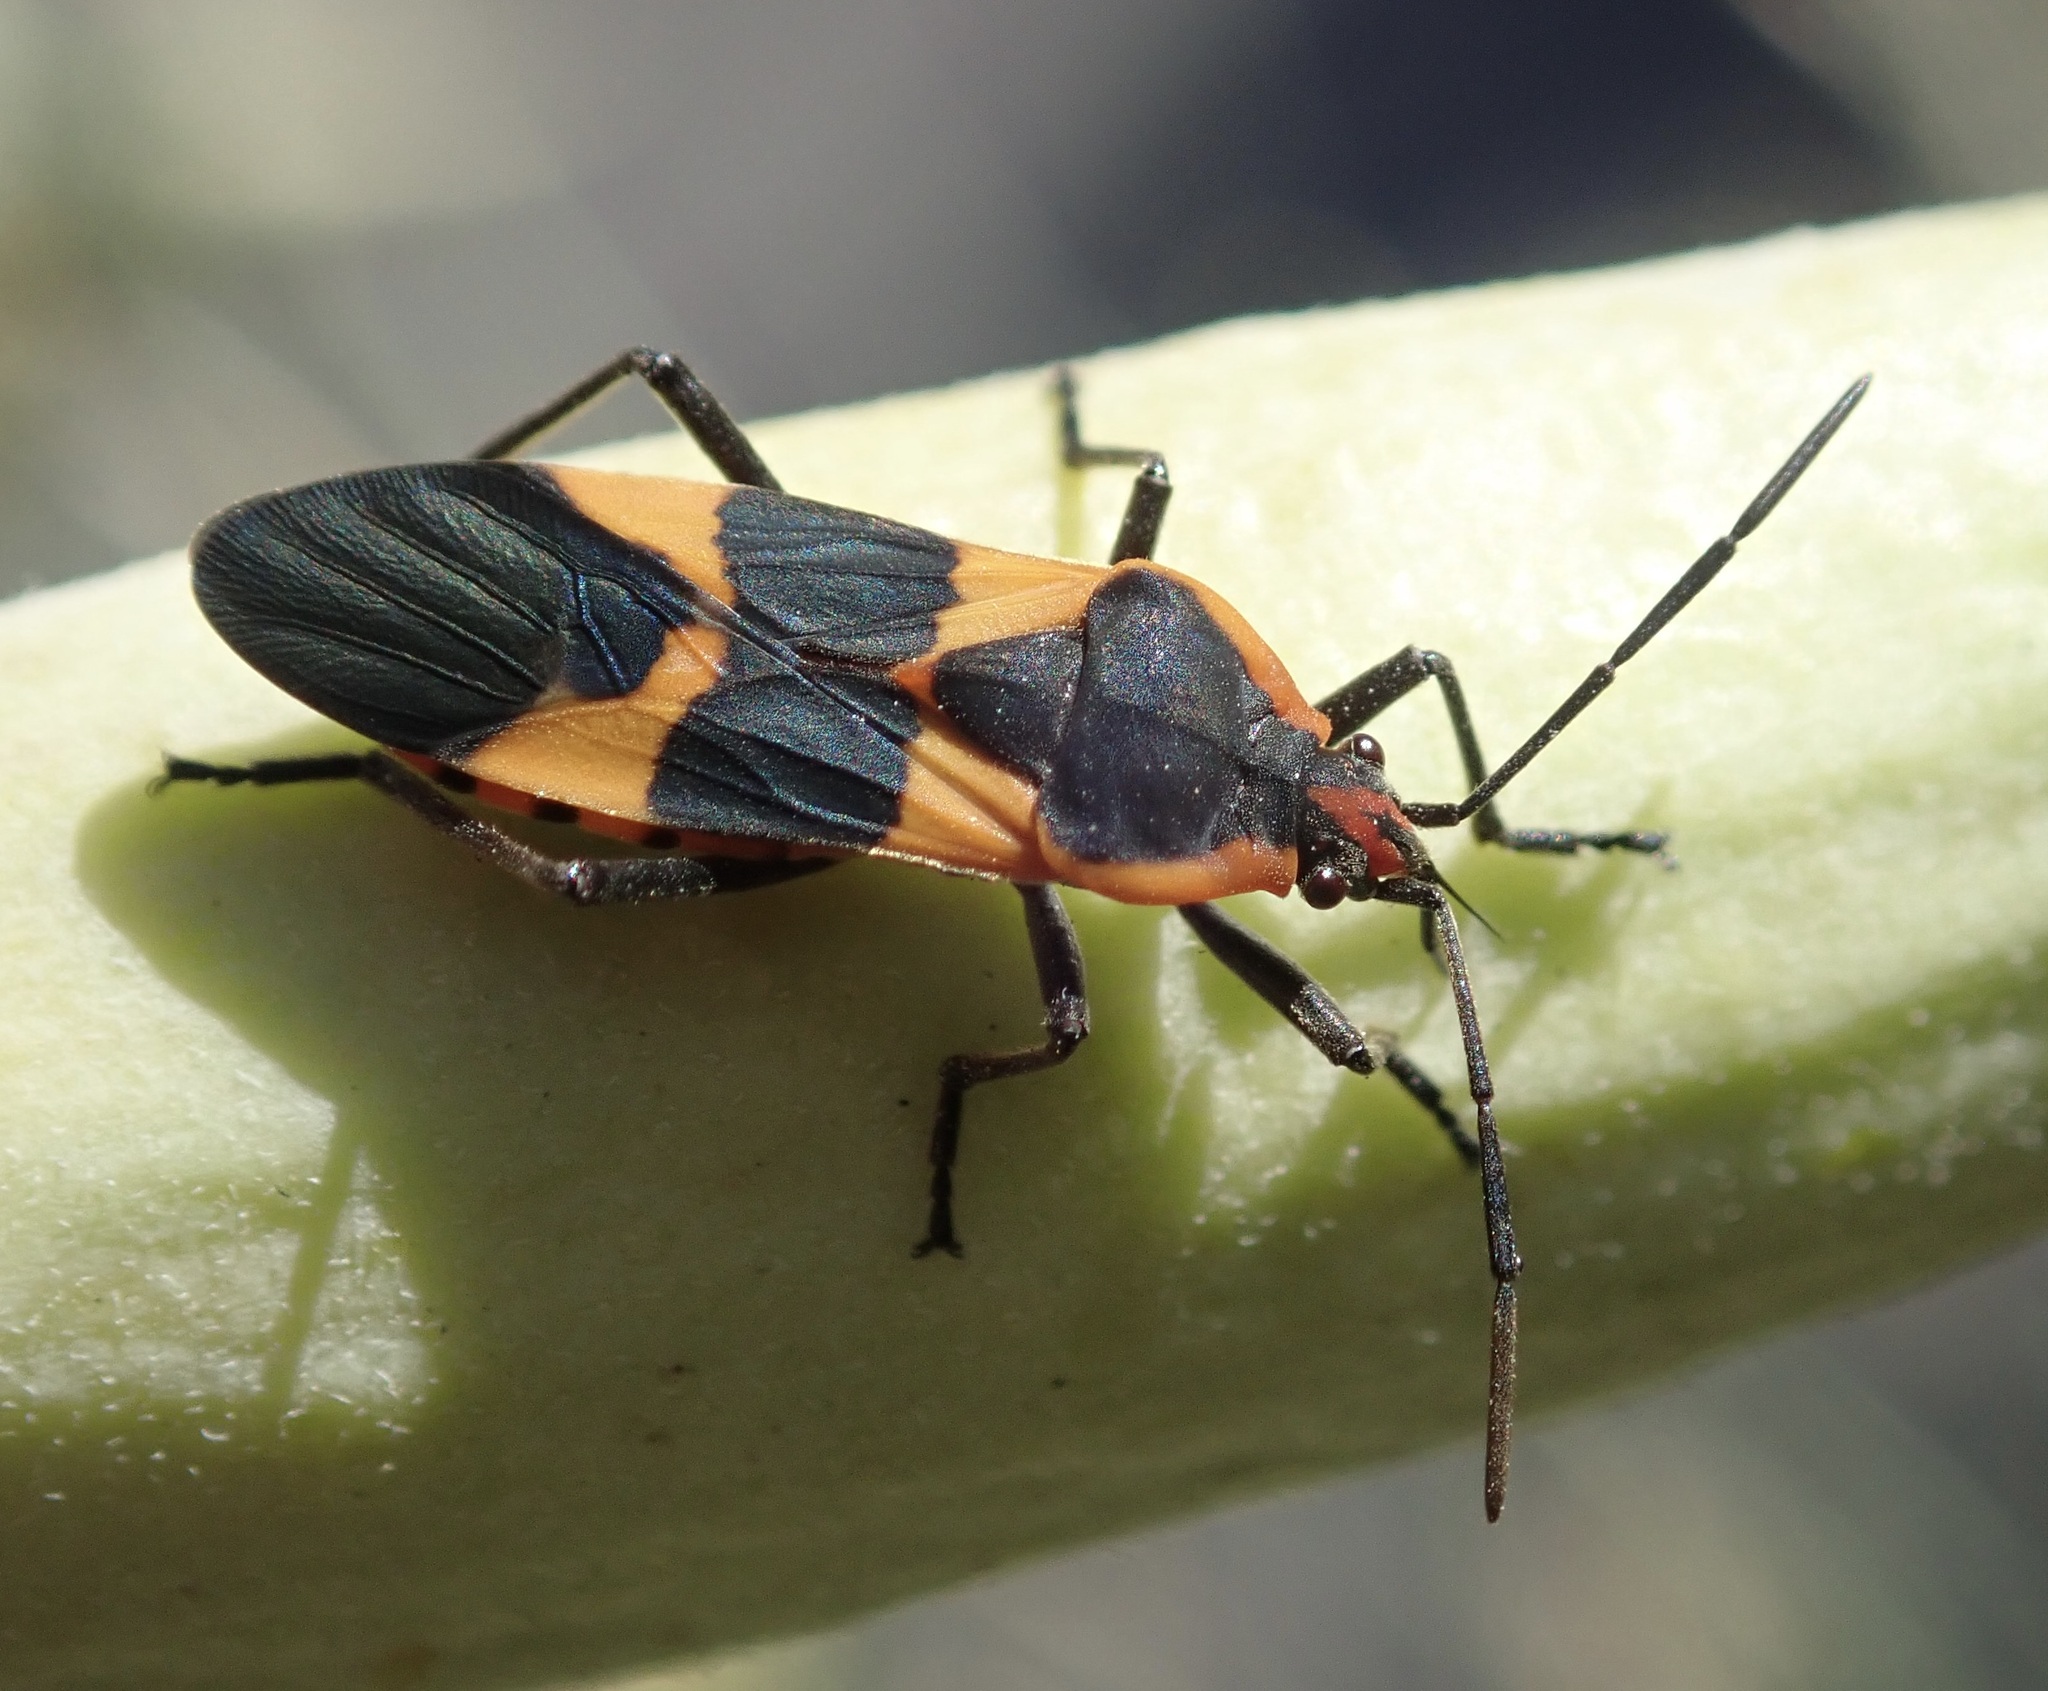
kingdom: Animalia
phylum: Arthropoda
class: Insecta
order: Hemiptera
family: Lygaeidae
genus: Oncopeltus
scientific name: Oncopeltus fasciatus
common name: Large milkweed bug
